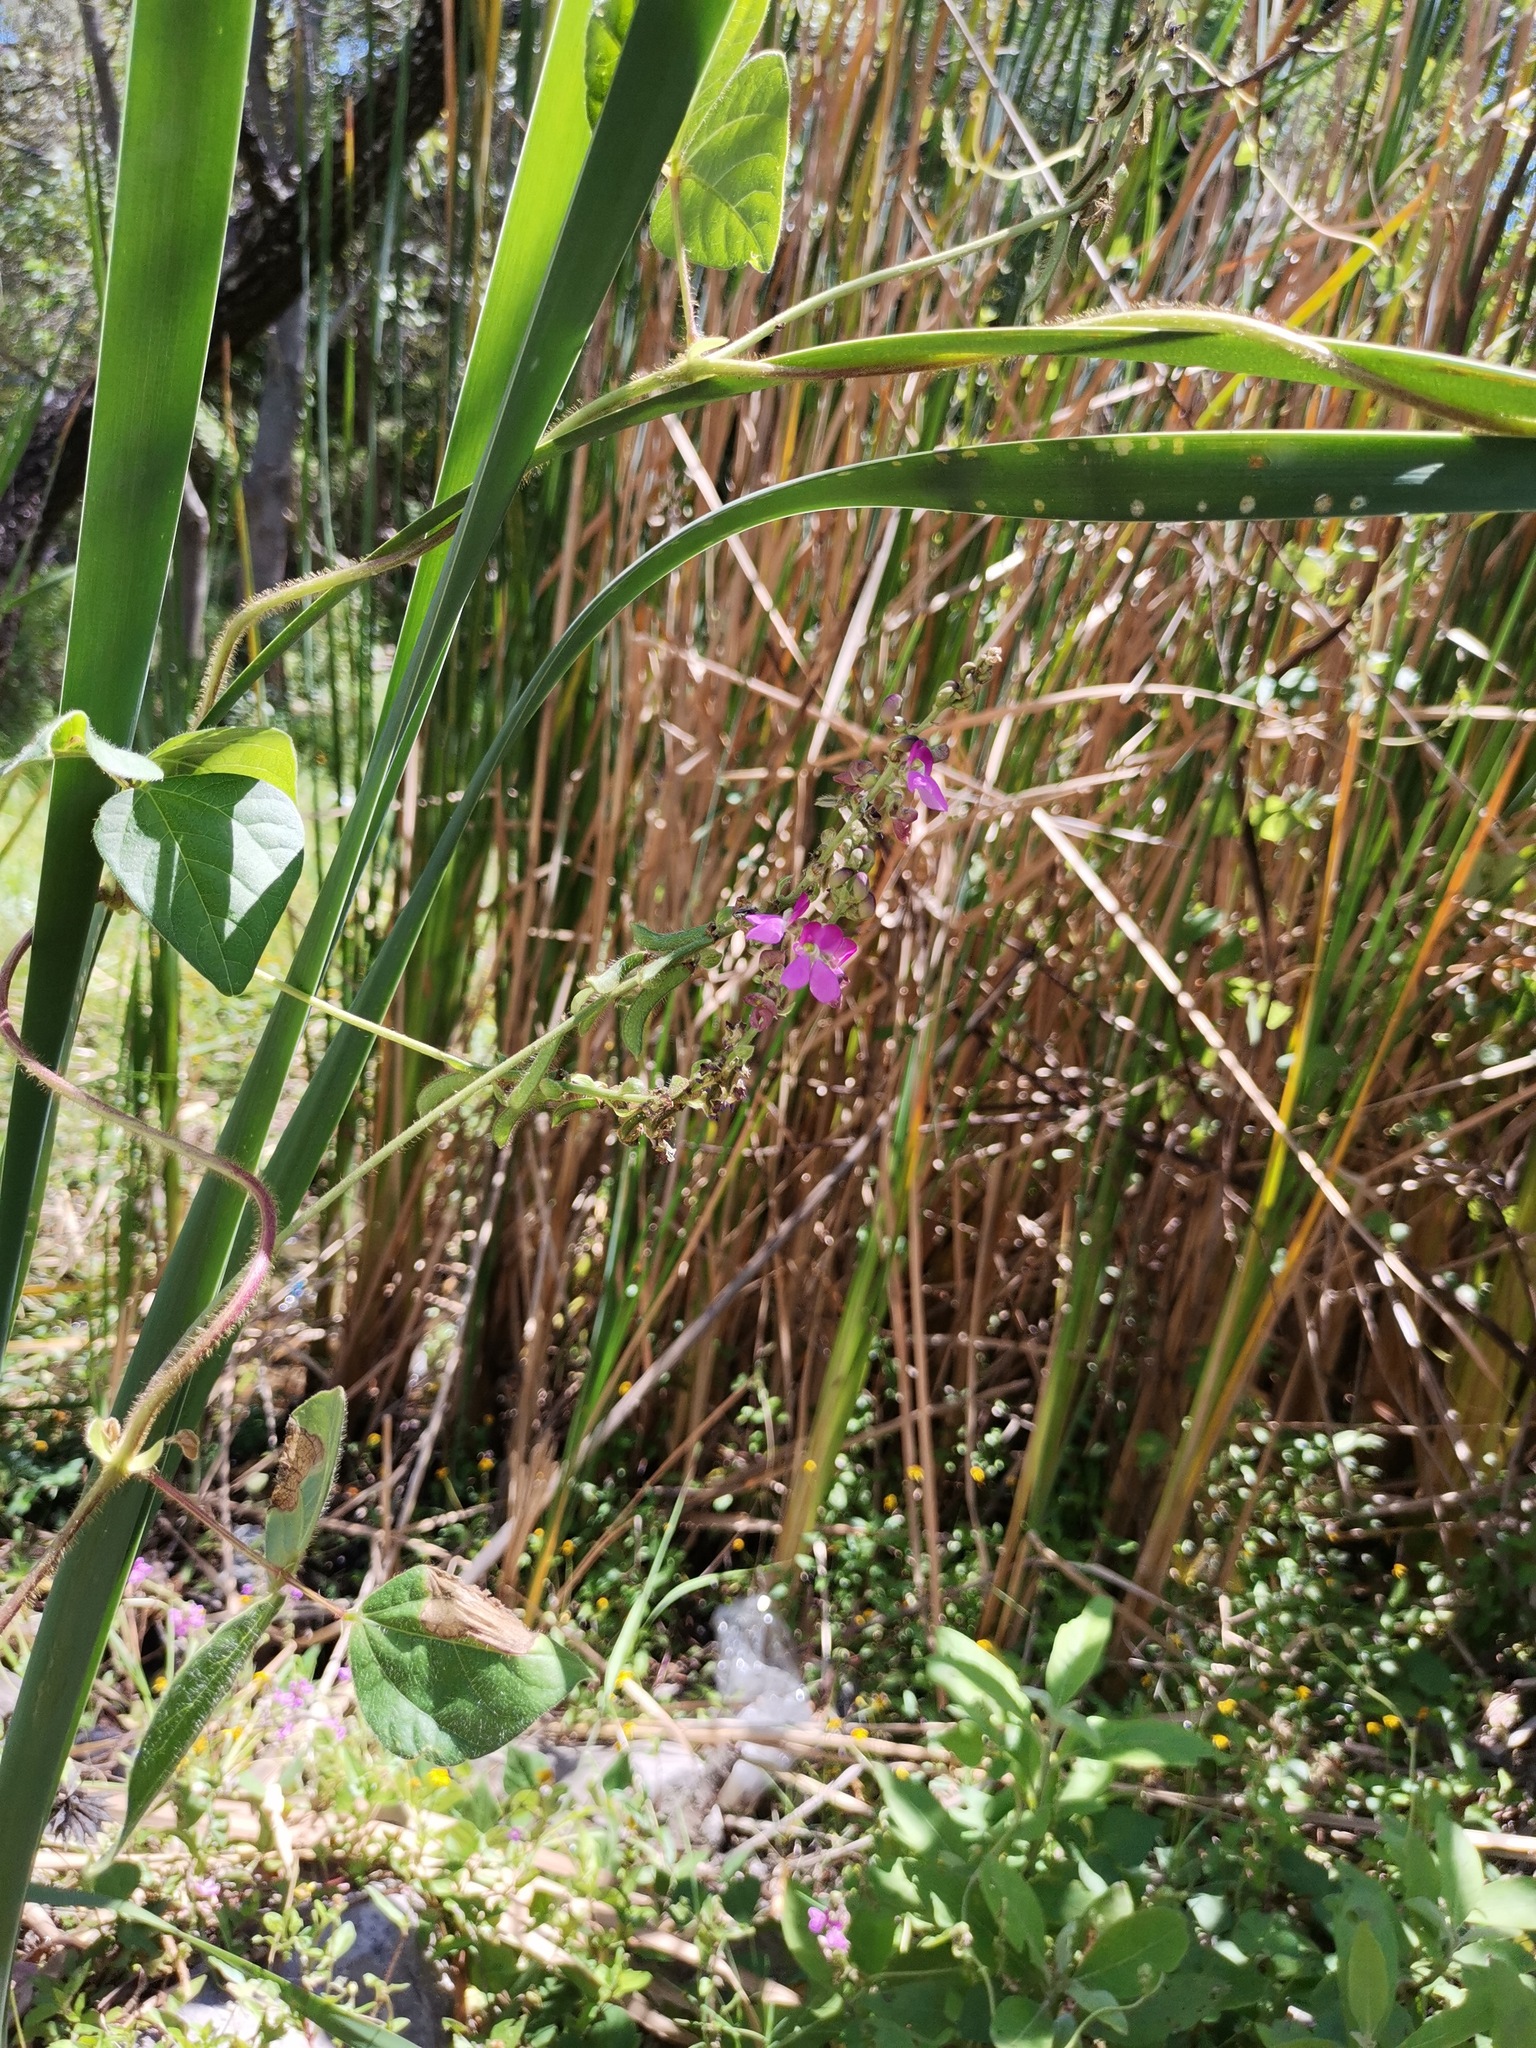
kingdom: Plantae
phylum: Tracheophyta
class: Magnoliopsida
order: Fabales
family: Fabaceae
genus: Phaseolus
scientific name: Phaseolus vulgaris
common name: Bean
